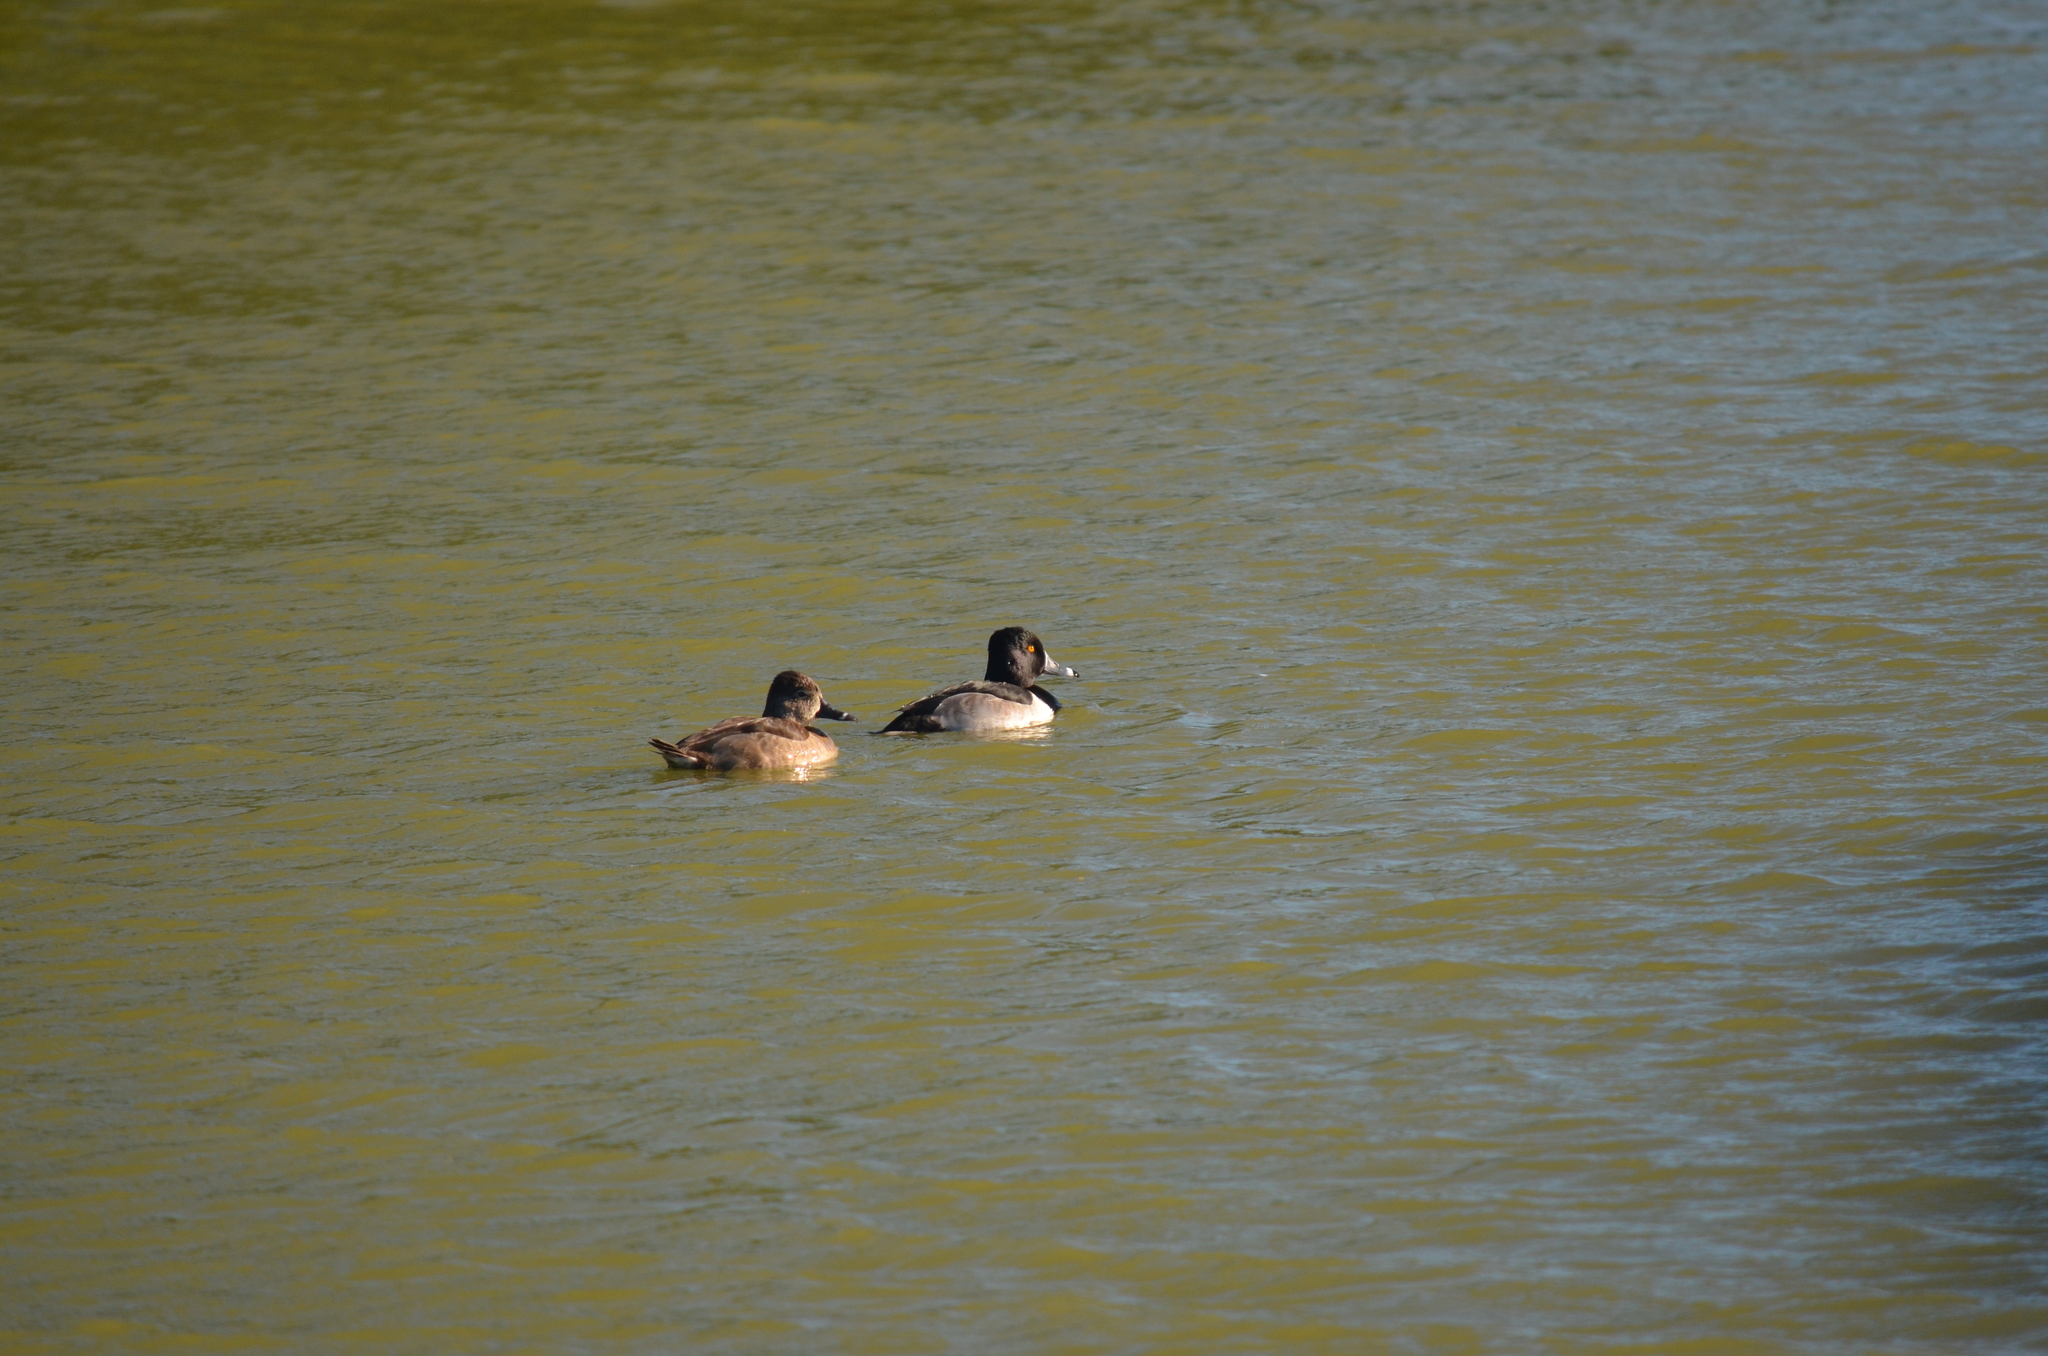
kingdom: Animalia
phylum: Chordata
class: Aves
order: Anseriformes
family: Anatidae
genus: Aythya
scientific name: Aythya collaris
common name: Ring-necked duck
